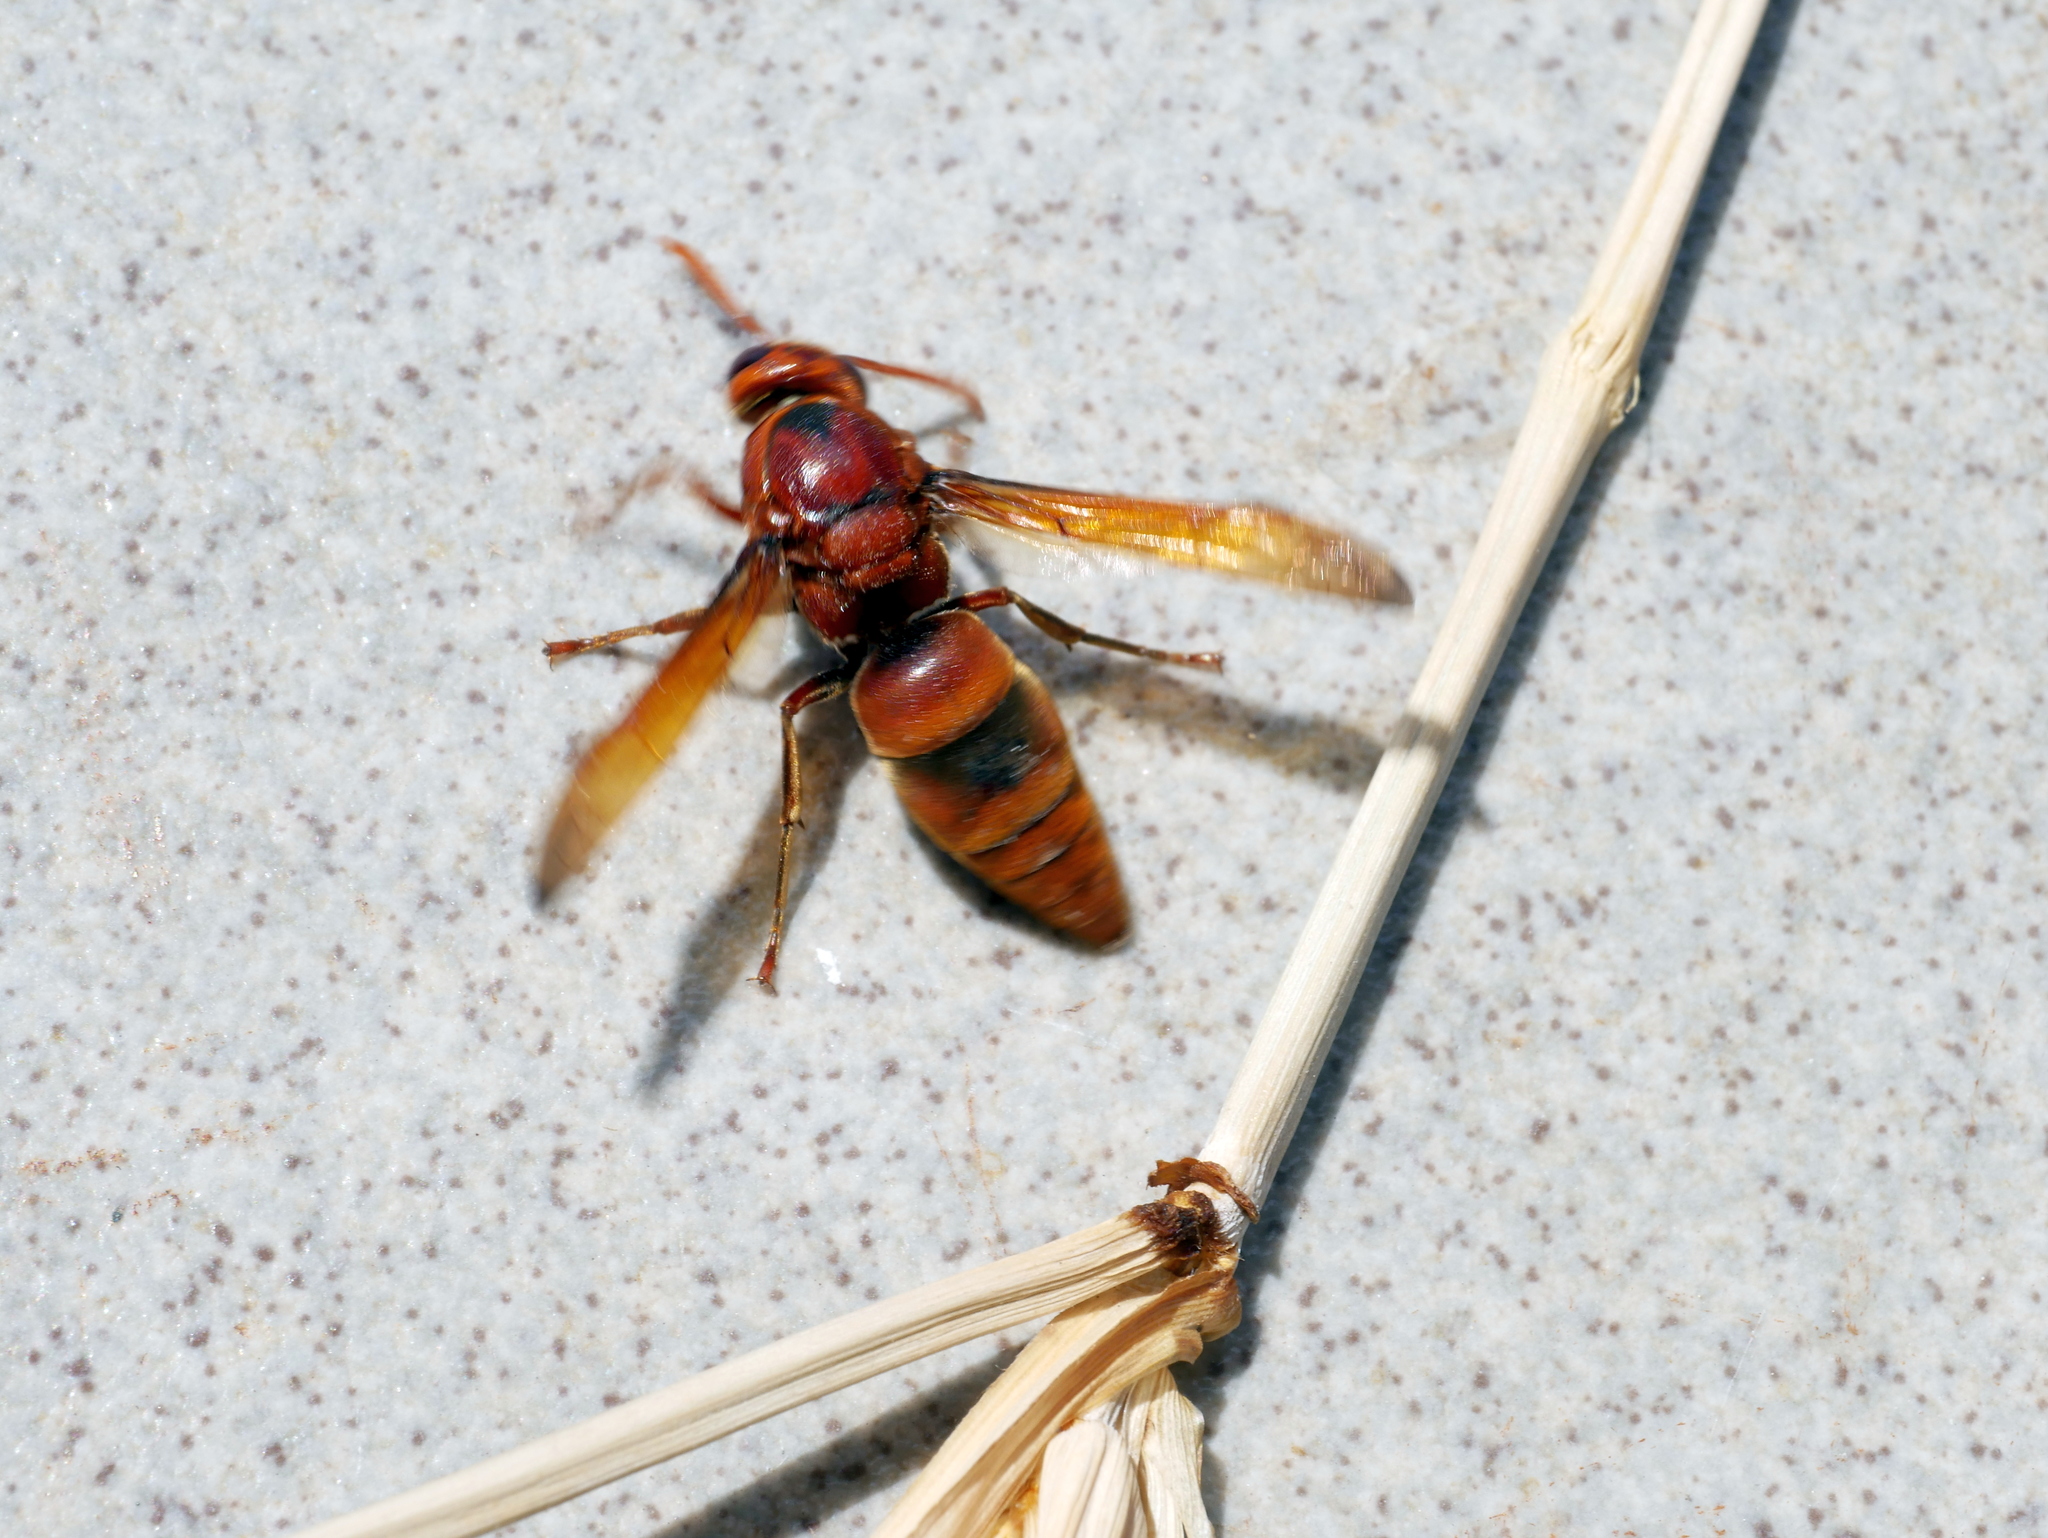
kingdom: Animalia
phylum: Arthropoda
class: Insecta
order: Hymenoptera
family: Eumenidae
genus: Rhynchium
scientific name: Rhynchium brunneum
